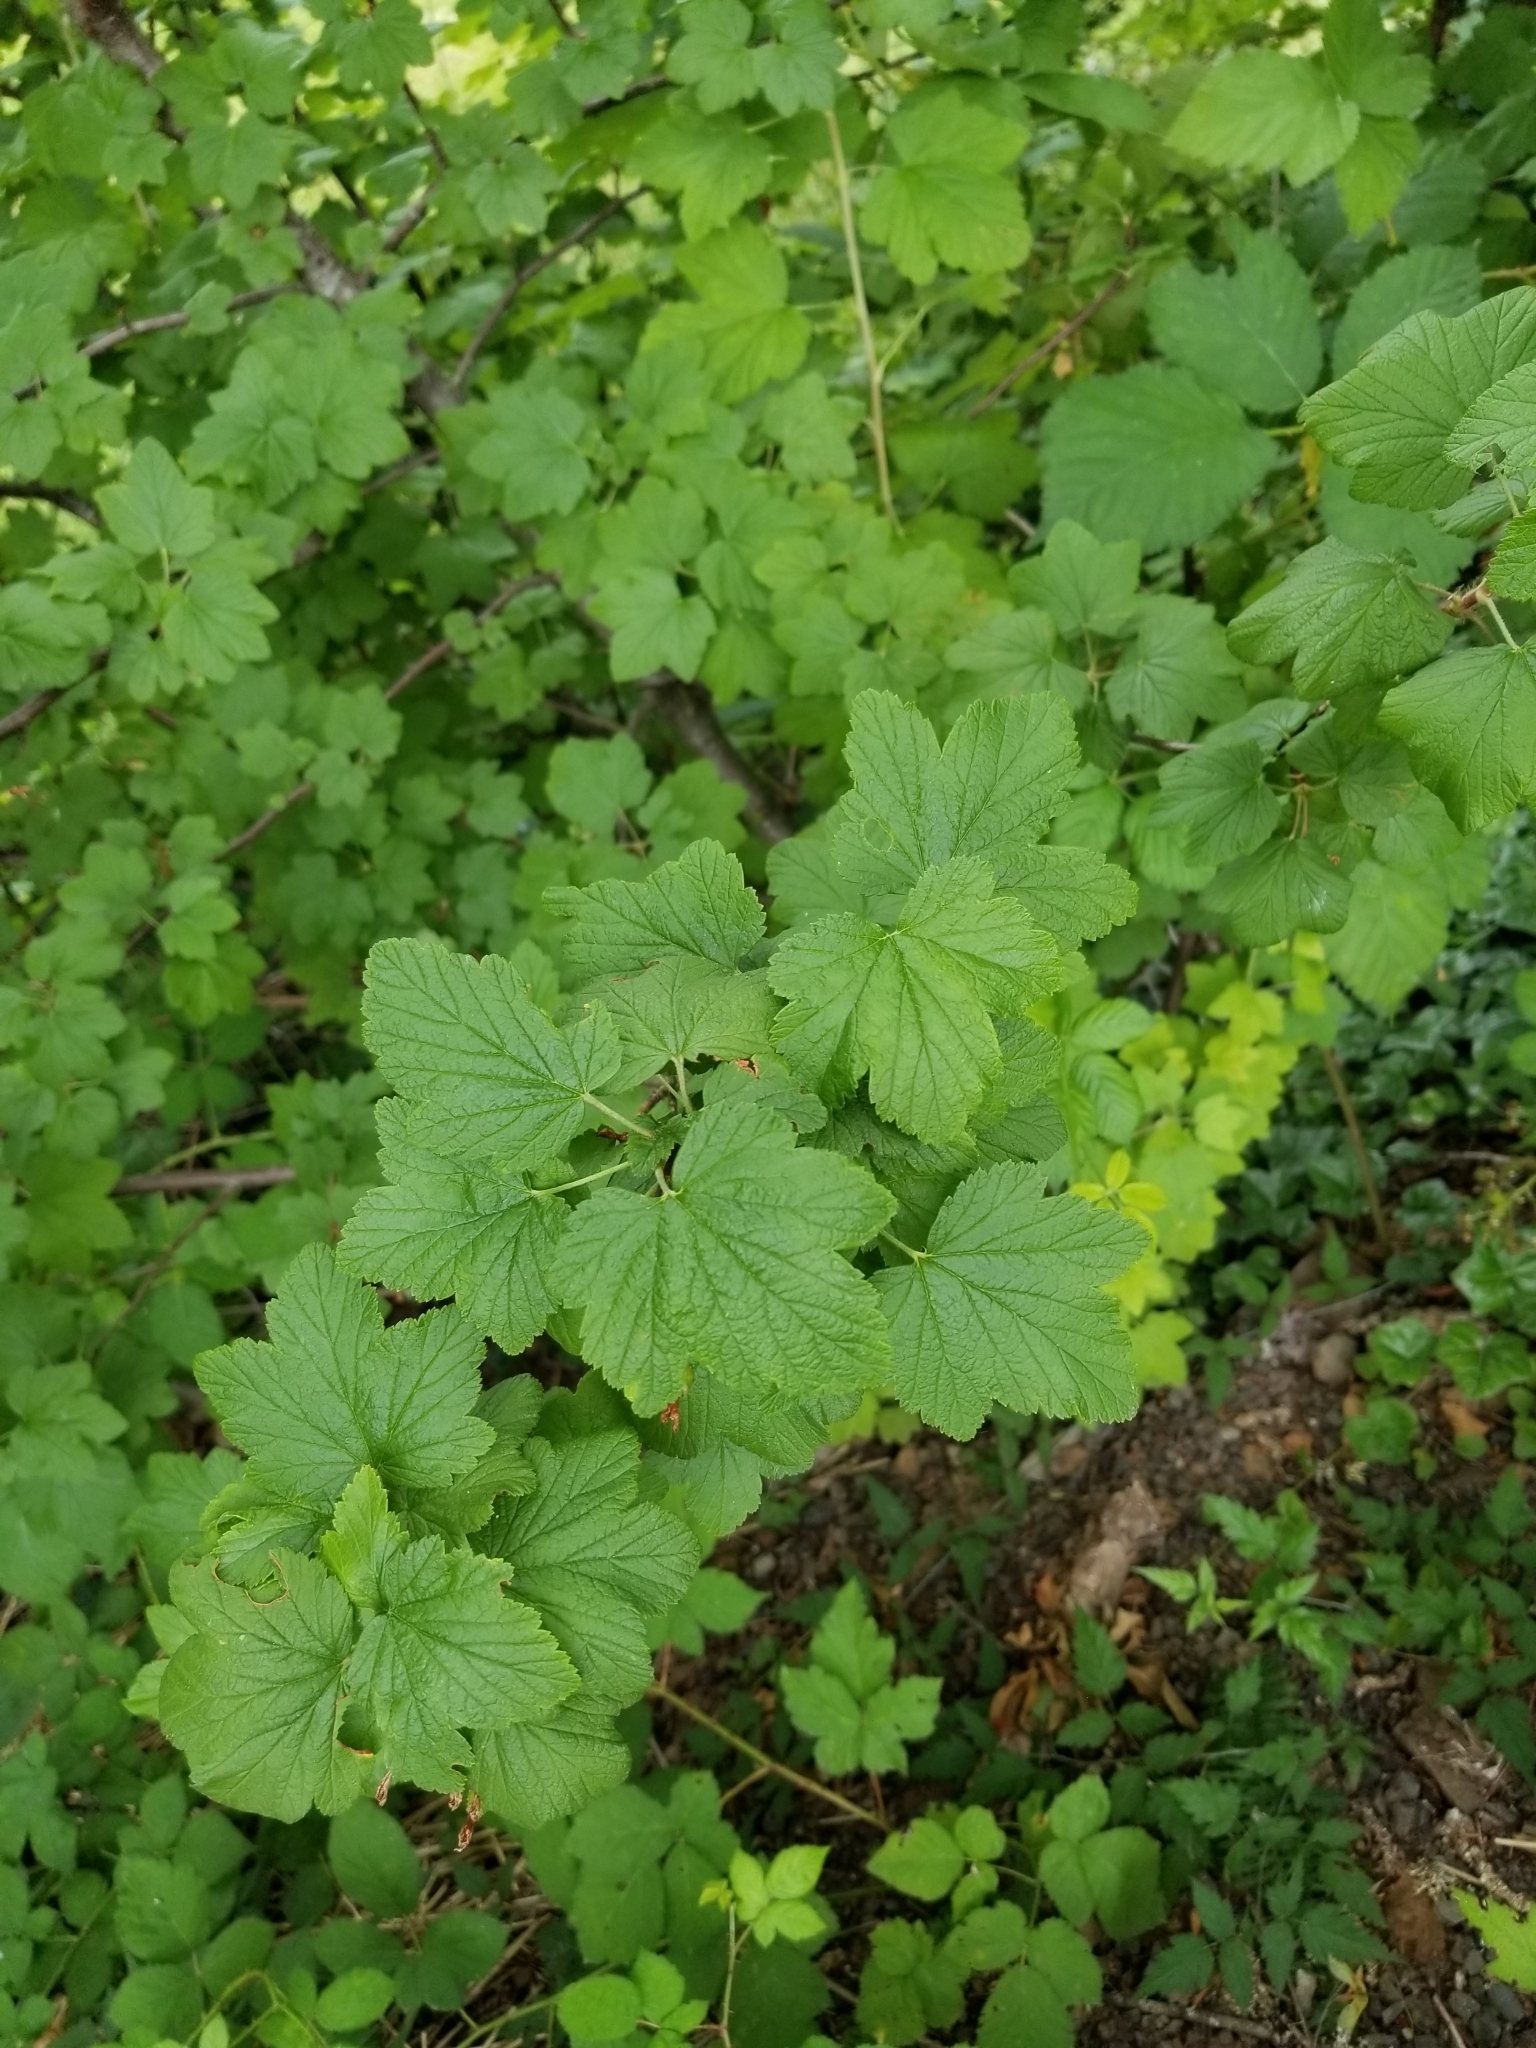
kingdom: Plantae
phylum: Tracheophyta
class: Magnoliopsida
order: Saxifragales
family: Grossulariaceae
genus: Ribes
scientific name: Ribes sanguineum
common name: Flowering currant
